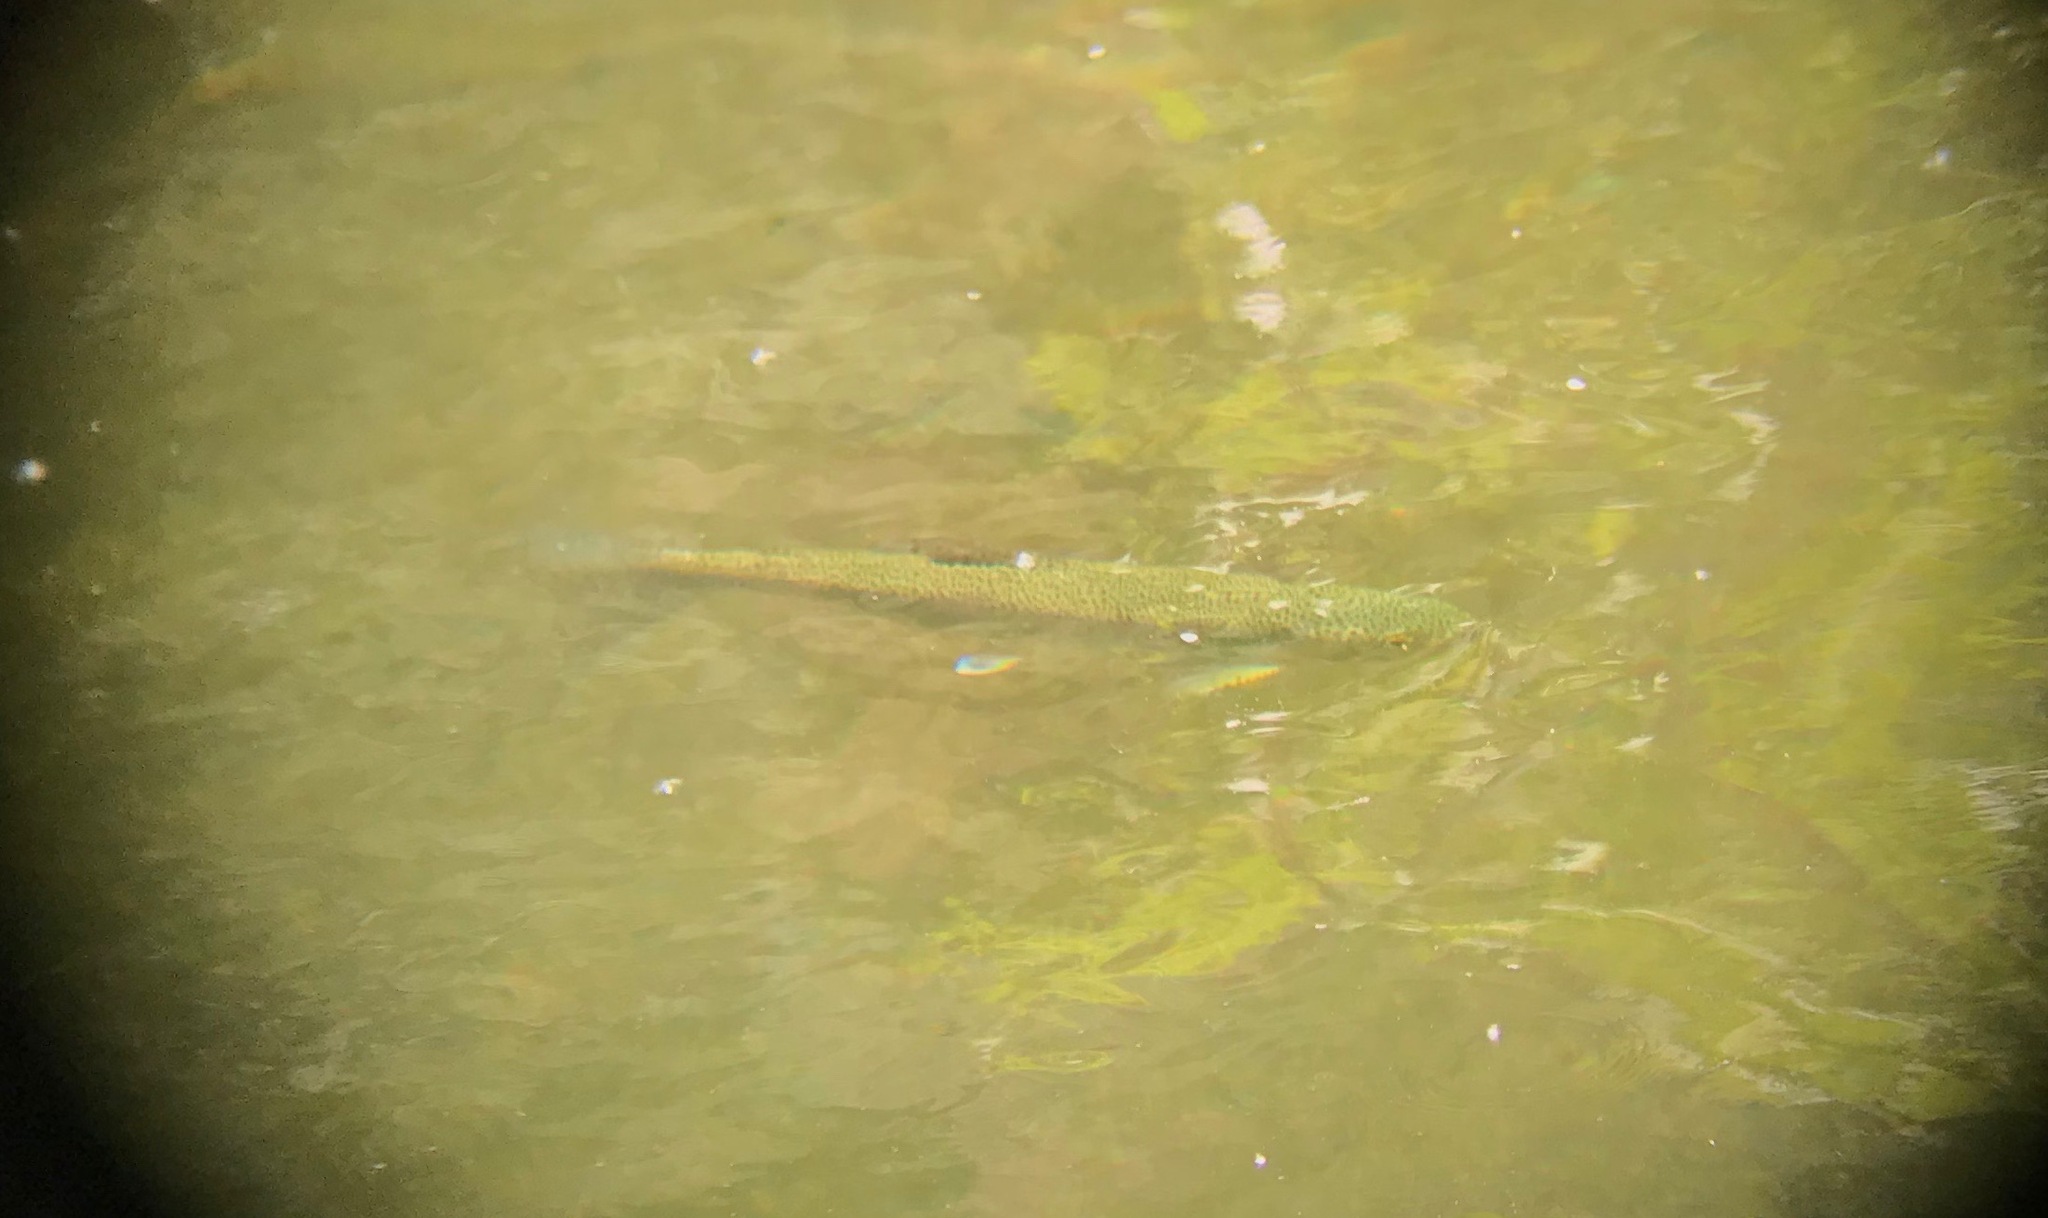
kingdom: Animalia
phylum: Chordata
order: Salmoniformes
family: Salmonidae
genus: Oncorhynchus
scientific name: Oncorhynchus mykiss
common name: Rainbow trout
